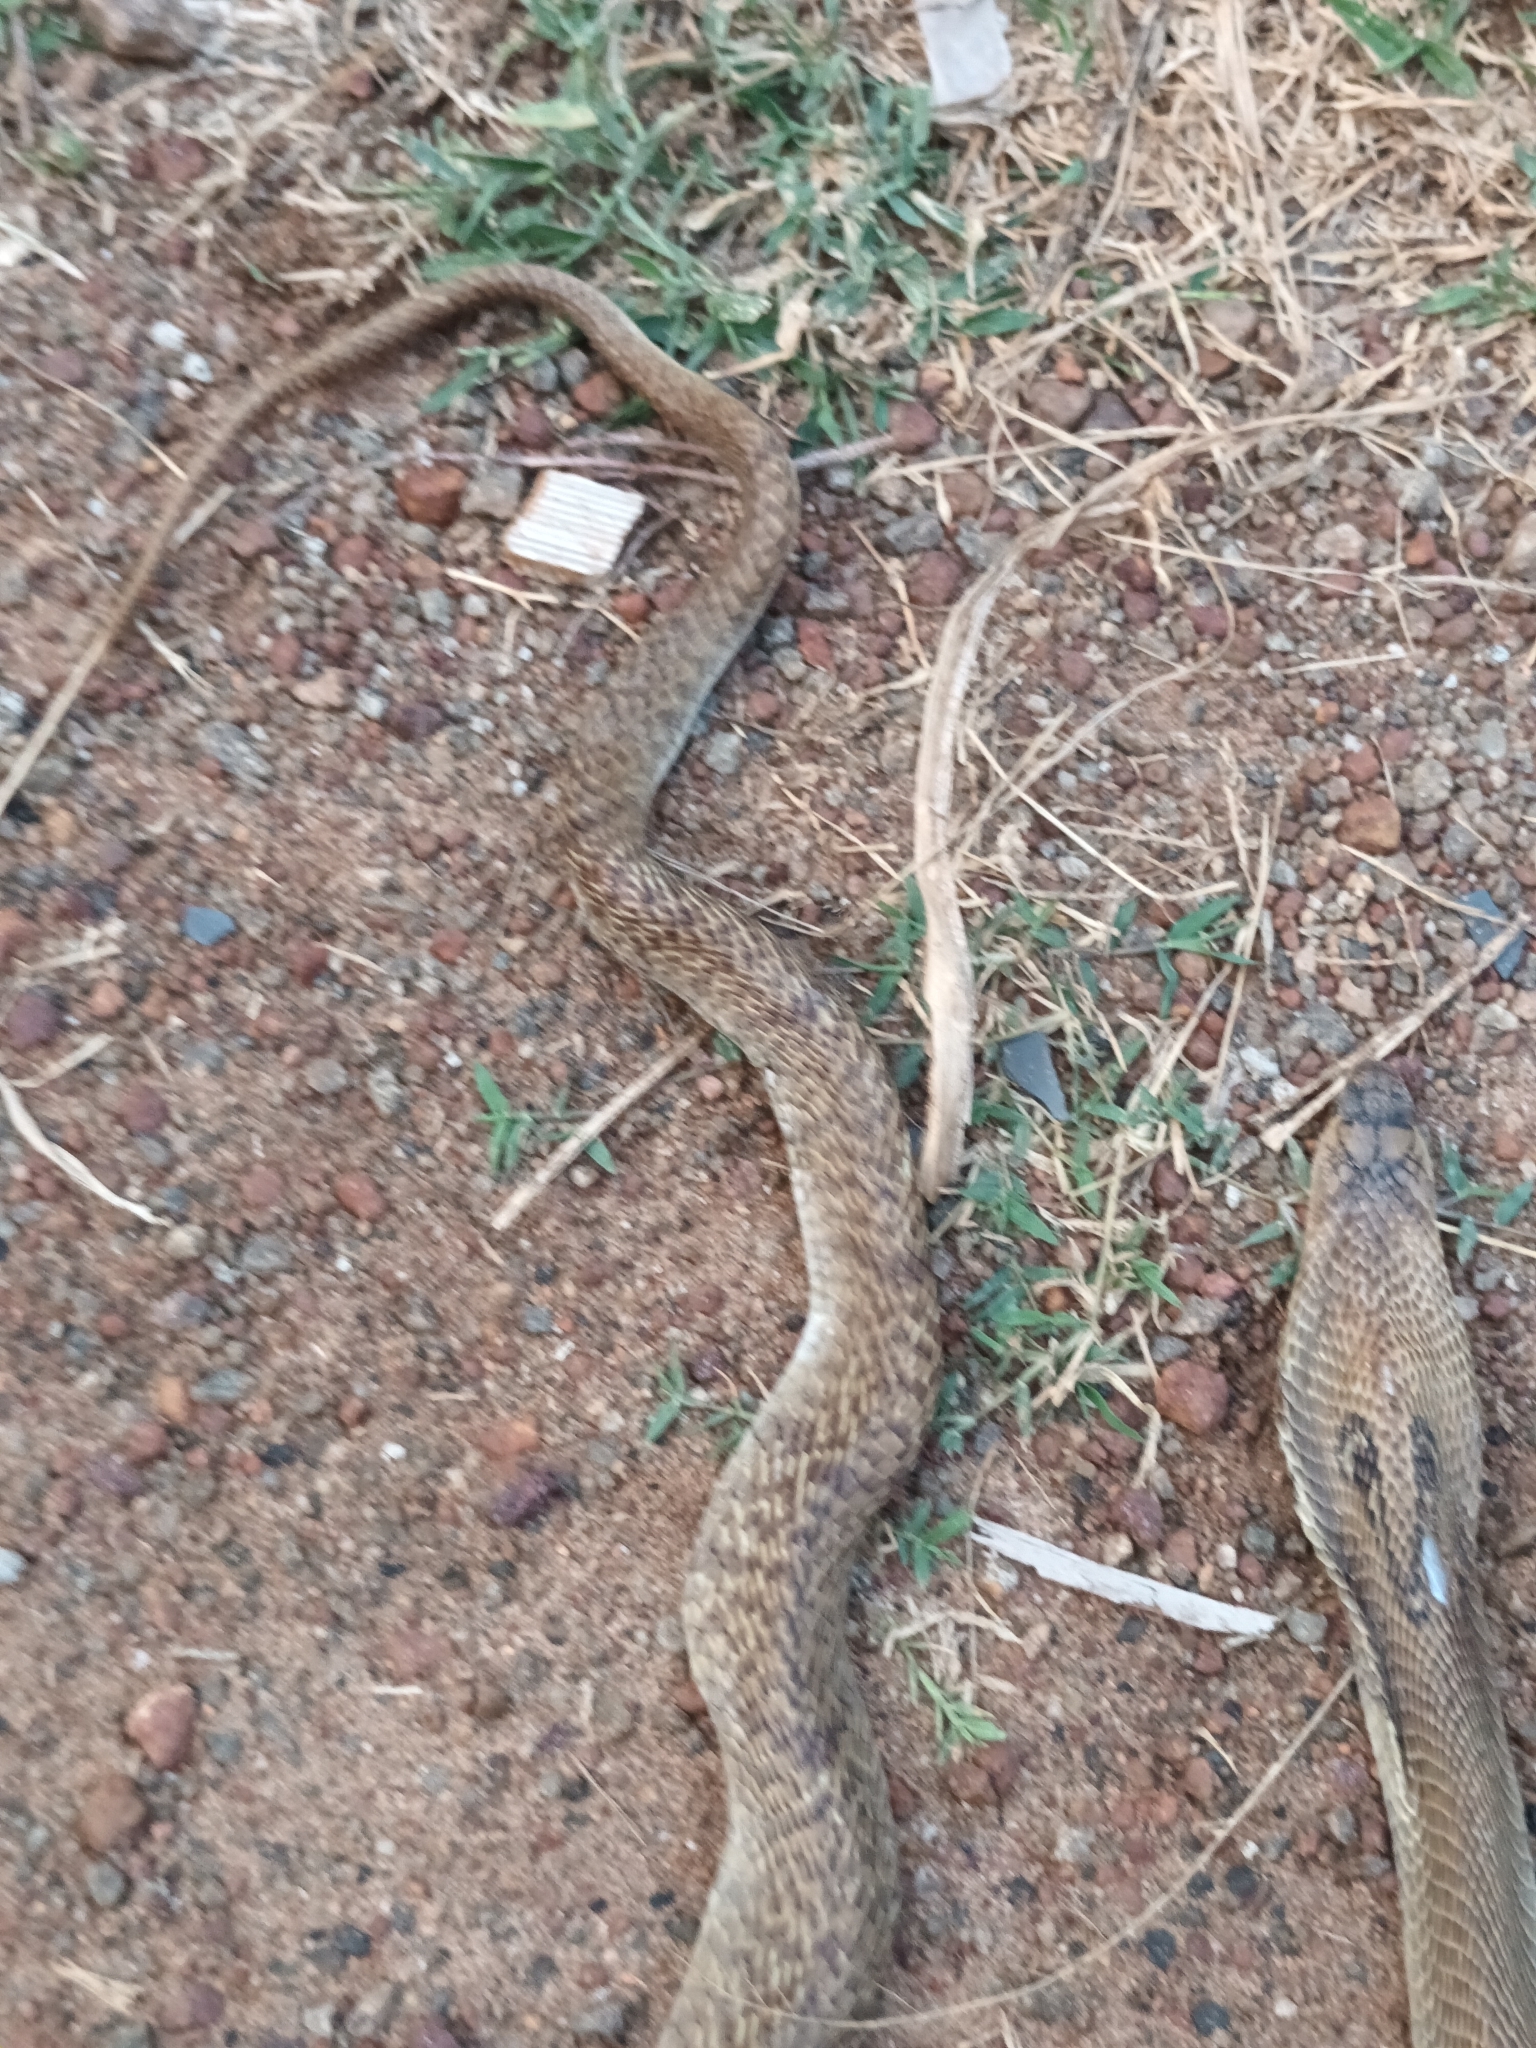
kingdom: Animalia
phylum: Chordata
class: Squamata
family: Elapidae
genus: Naja
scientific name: Naja naja
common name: Indian cobra
